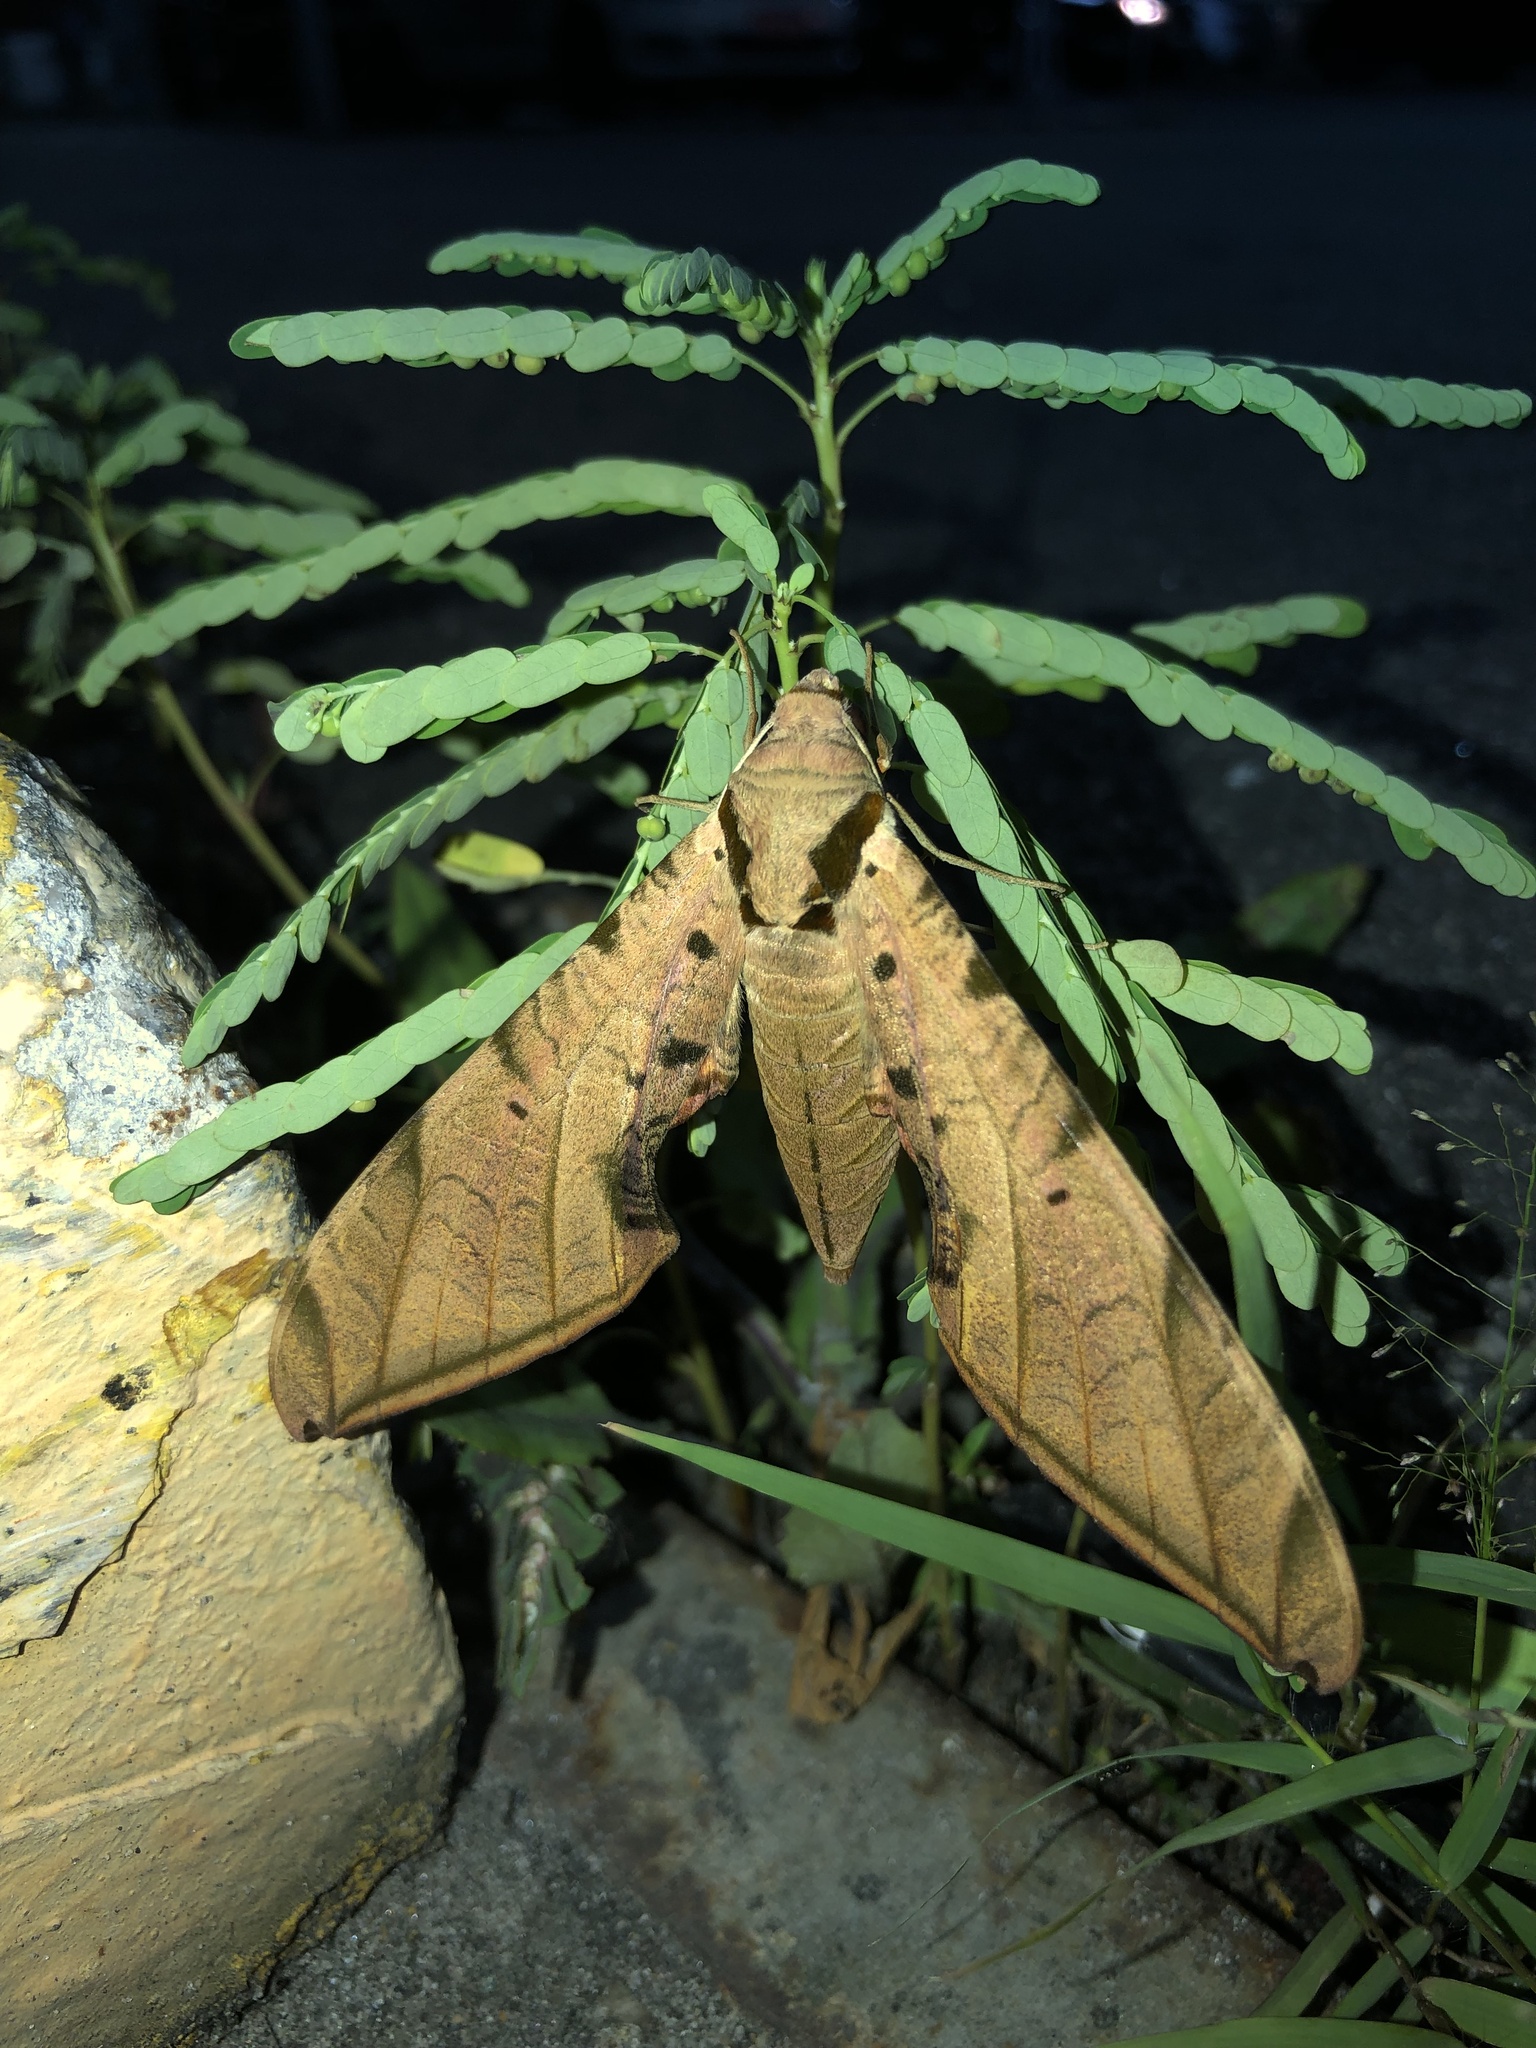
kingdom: Animalia
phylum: Arthropoda
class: Insecta
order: Lepidoptera
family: Sphingidae
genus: Protambulyx
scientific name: Protambulyx strigilis
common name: Streaked sphinx
